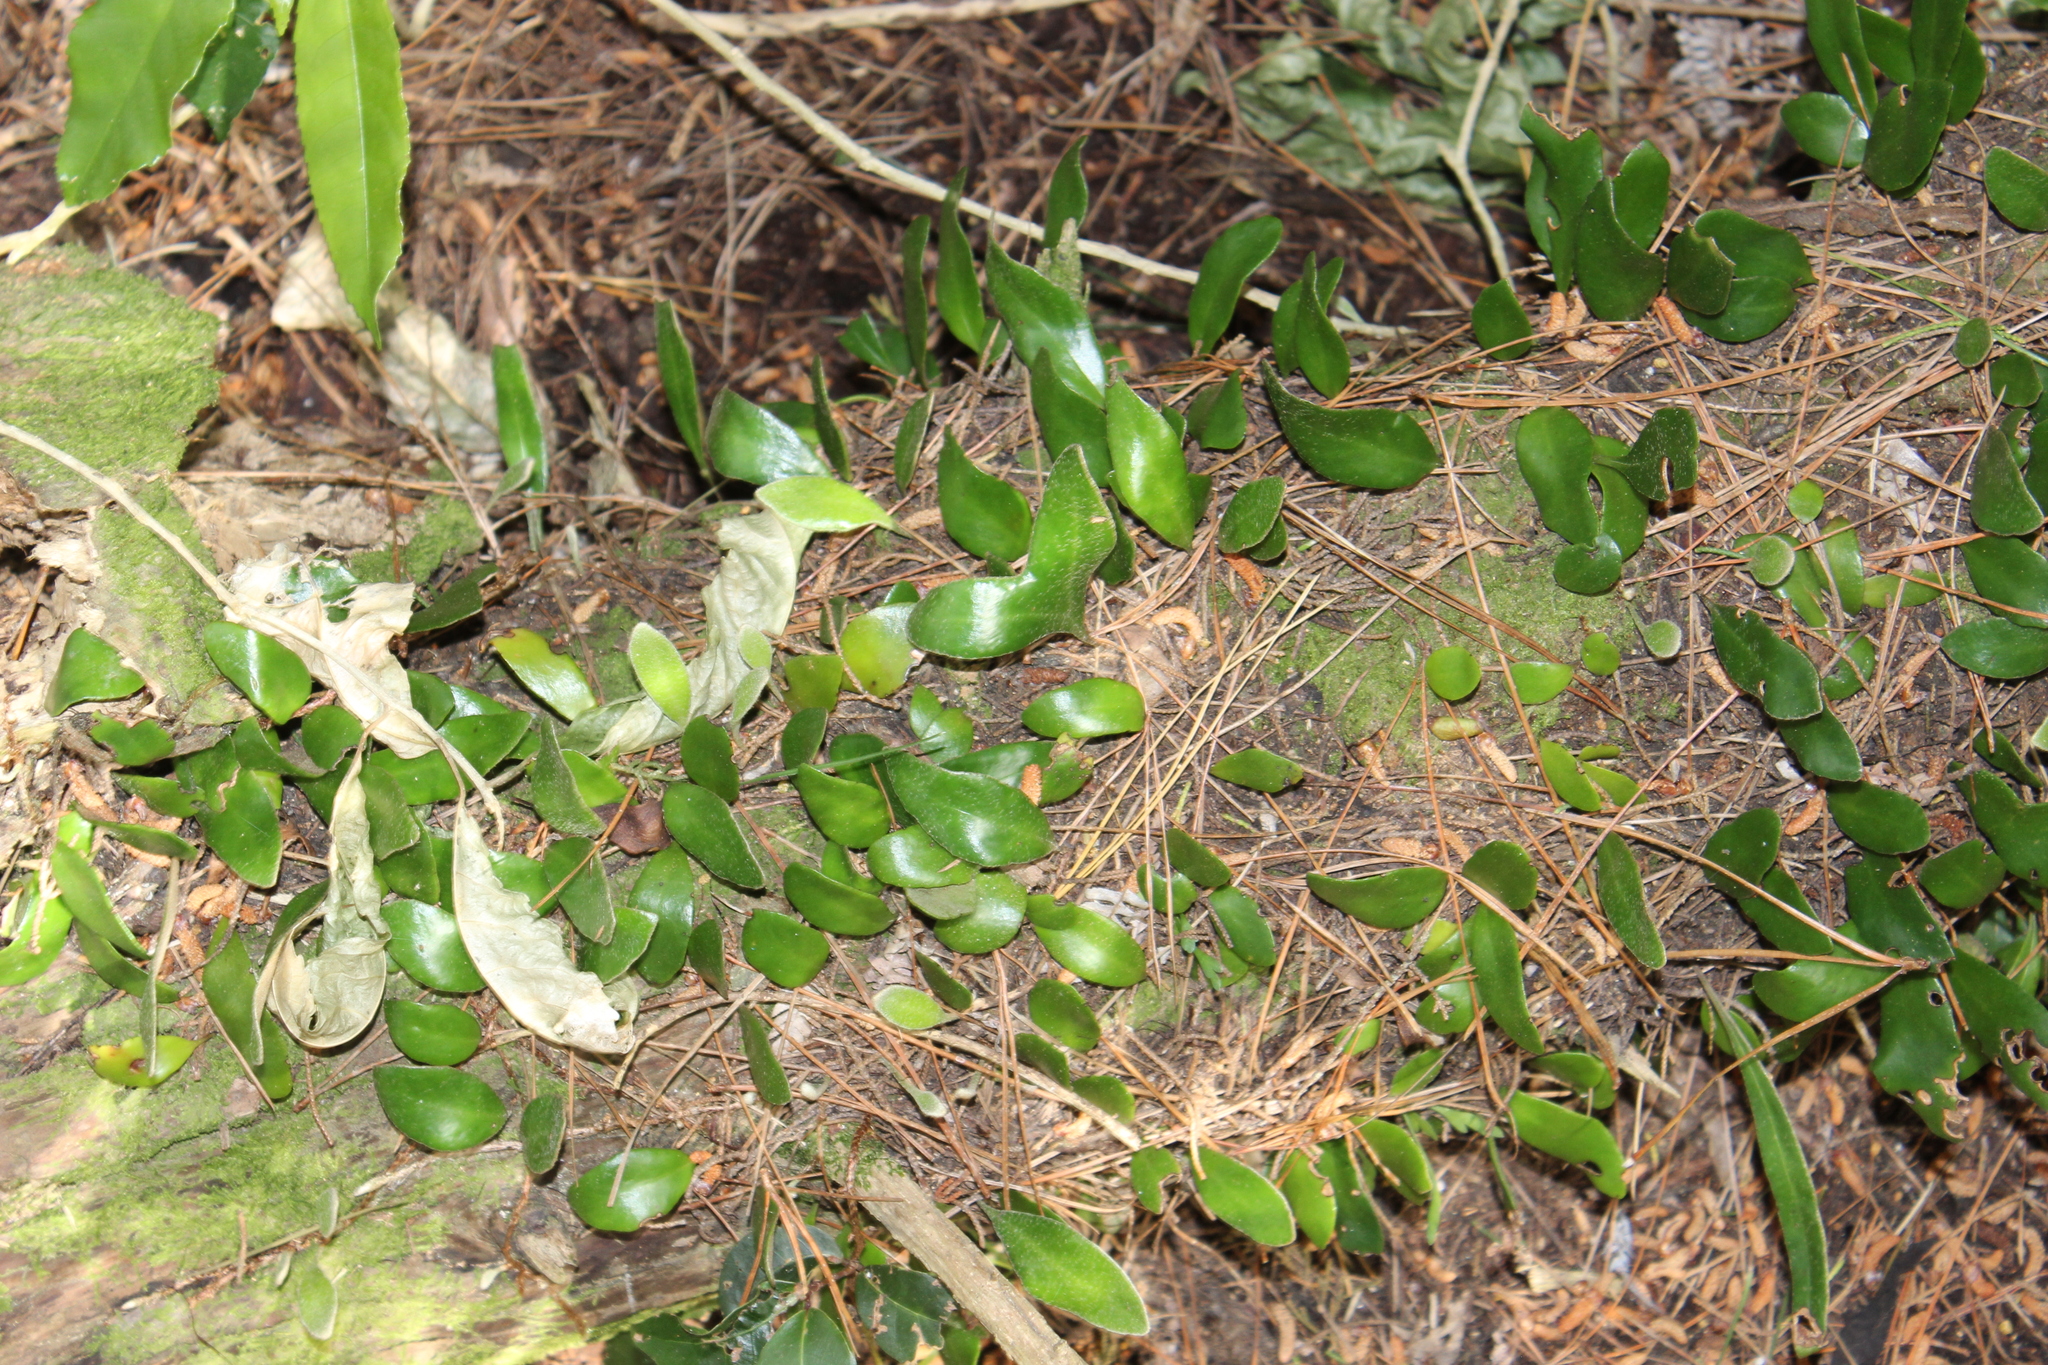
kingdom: Plantae
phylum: Tracheophyta
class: Polypodiopsida
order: Polypodiales
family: Polypodiaceae
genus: Pyrrosia
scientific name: Pyrrosia eleagnifolia
